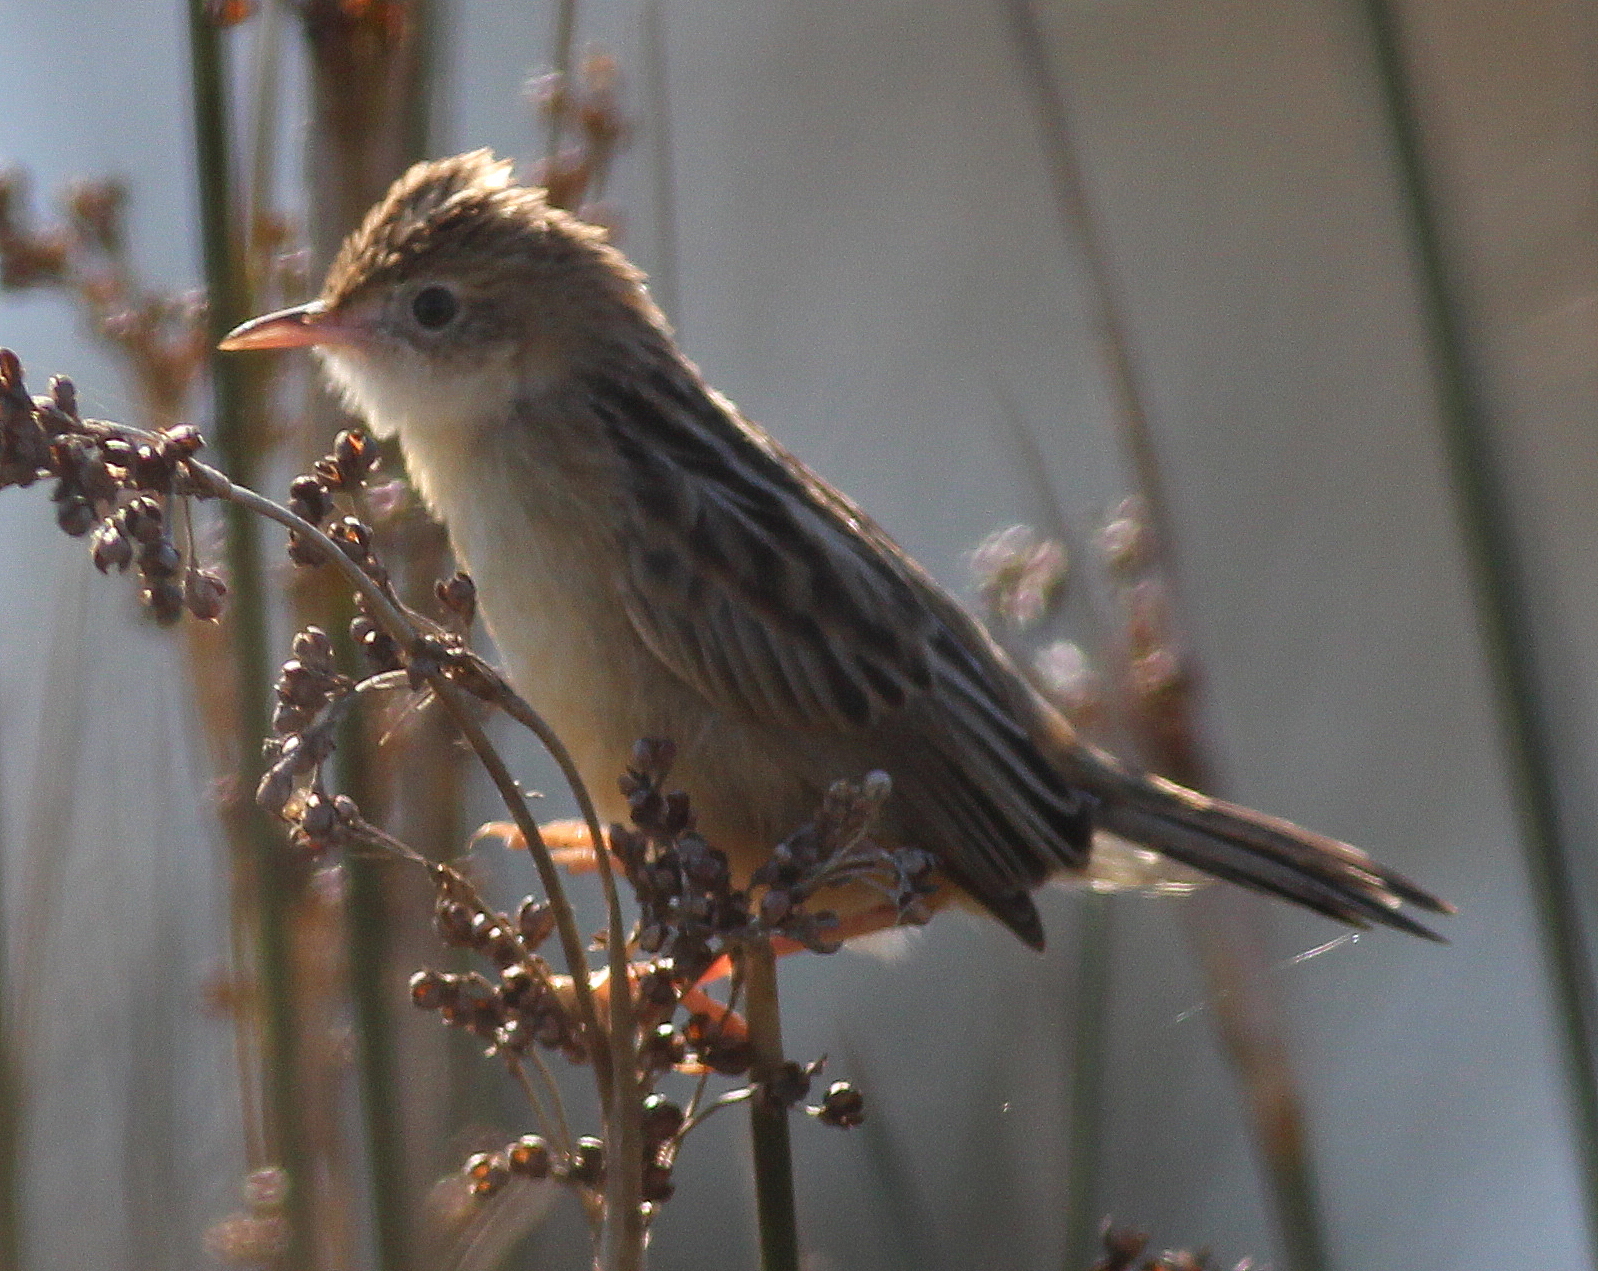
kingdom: Animalia
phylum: Chordata
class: Aves
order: Passeriformes
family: Cisticolidae
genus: Cisticola
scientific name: Cisticola juncidis
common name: Zitting cisticola
